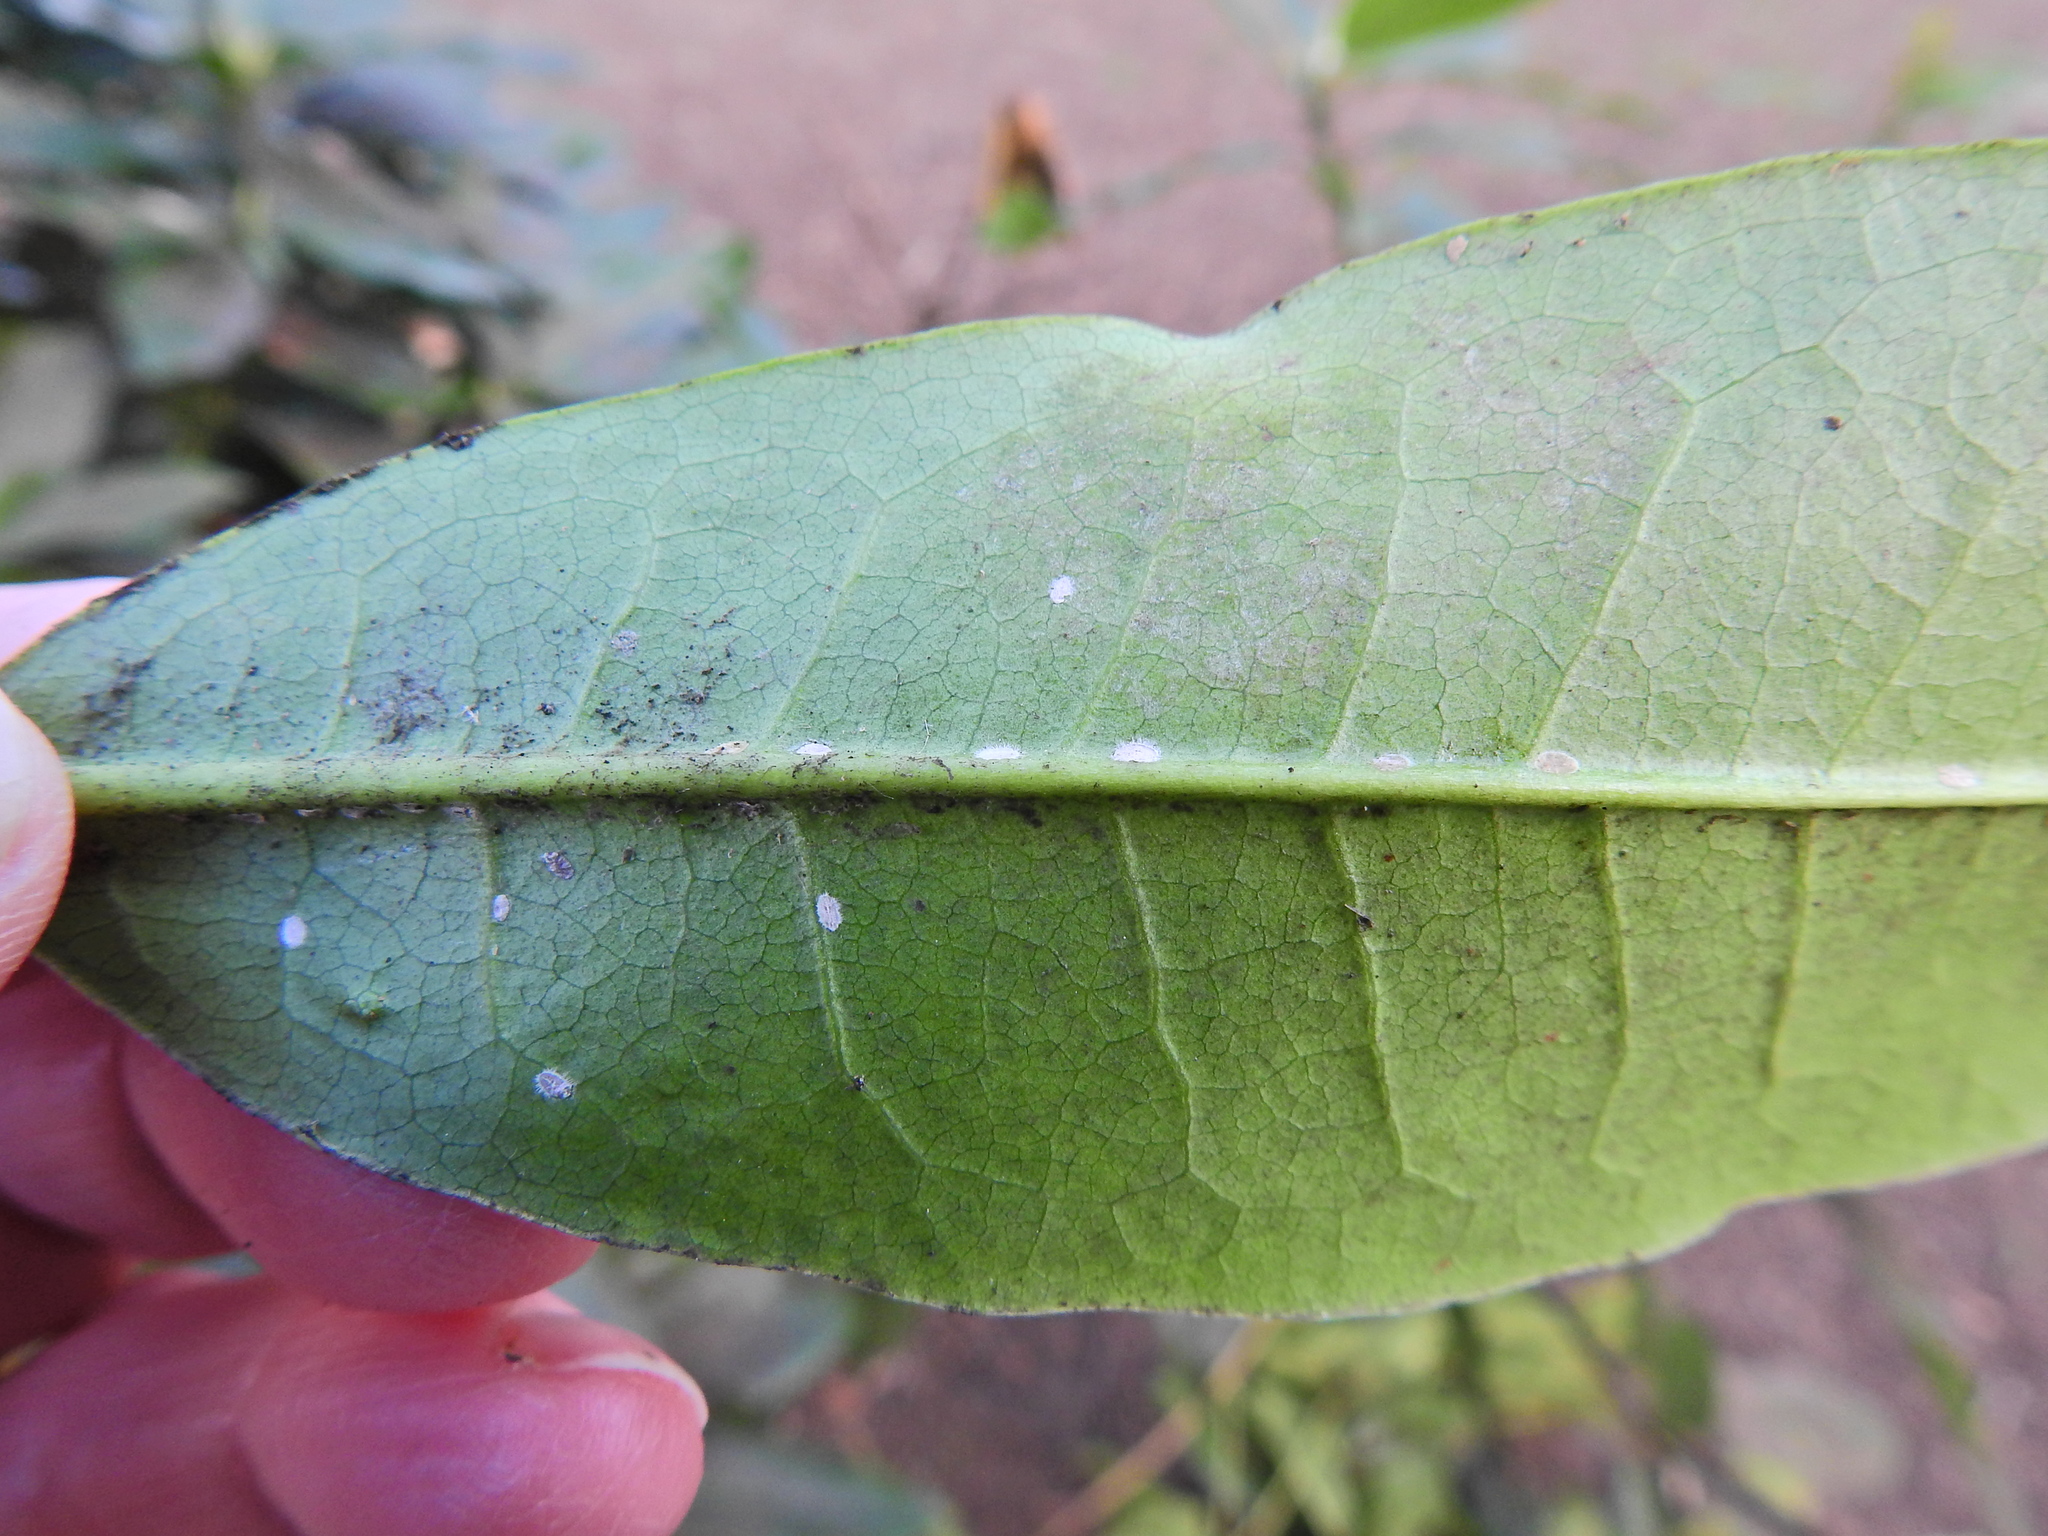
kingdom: Animalia
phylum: Arthropoda
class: Insecta
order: Hemiptera
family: Coccidae
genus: Pulvinaria
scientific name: Pulvinaria floccifera
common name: Cottony camellia scale
